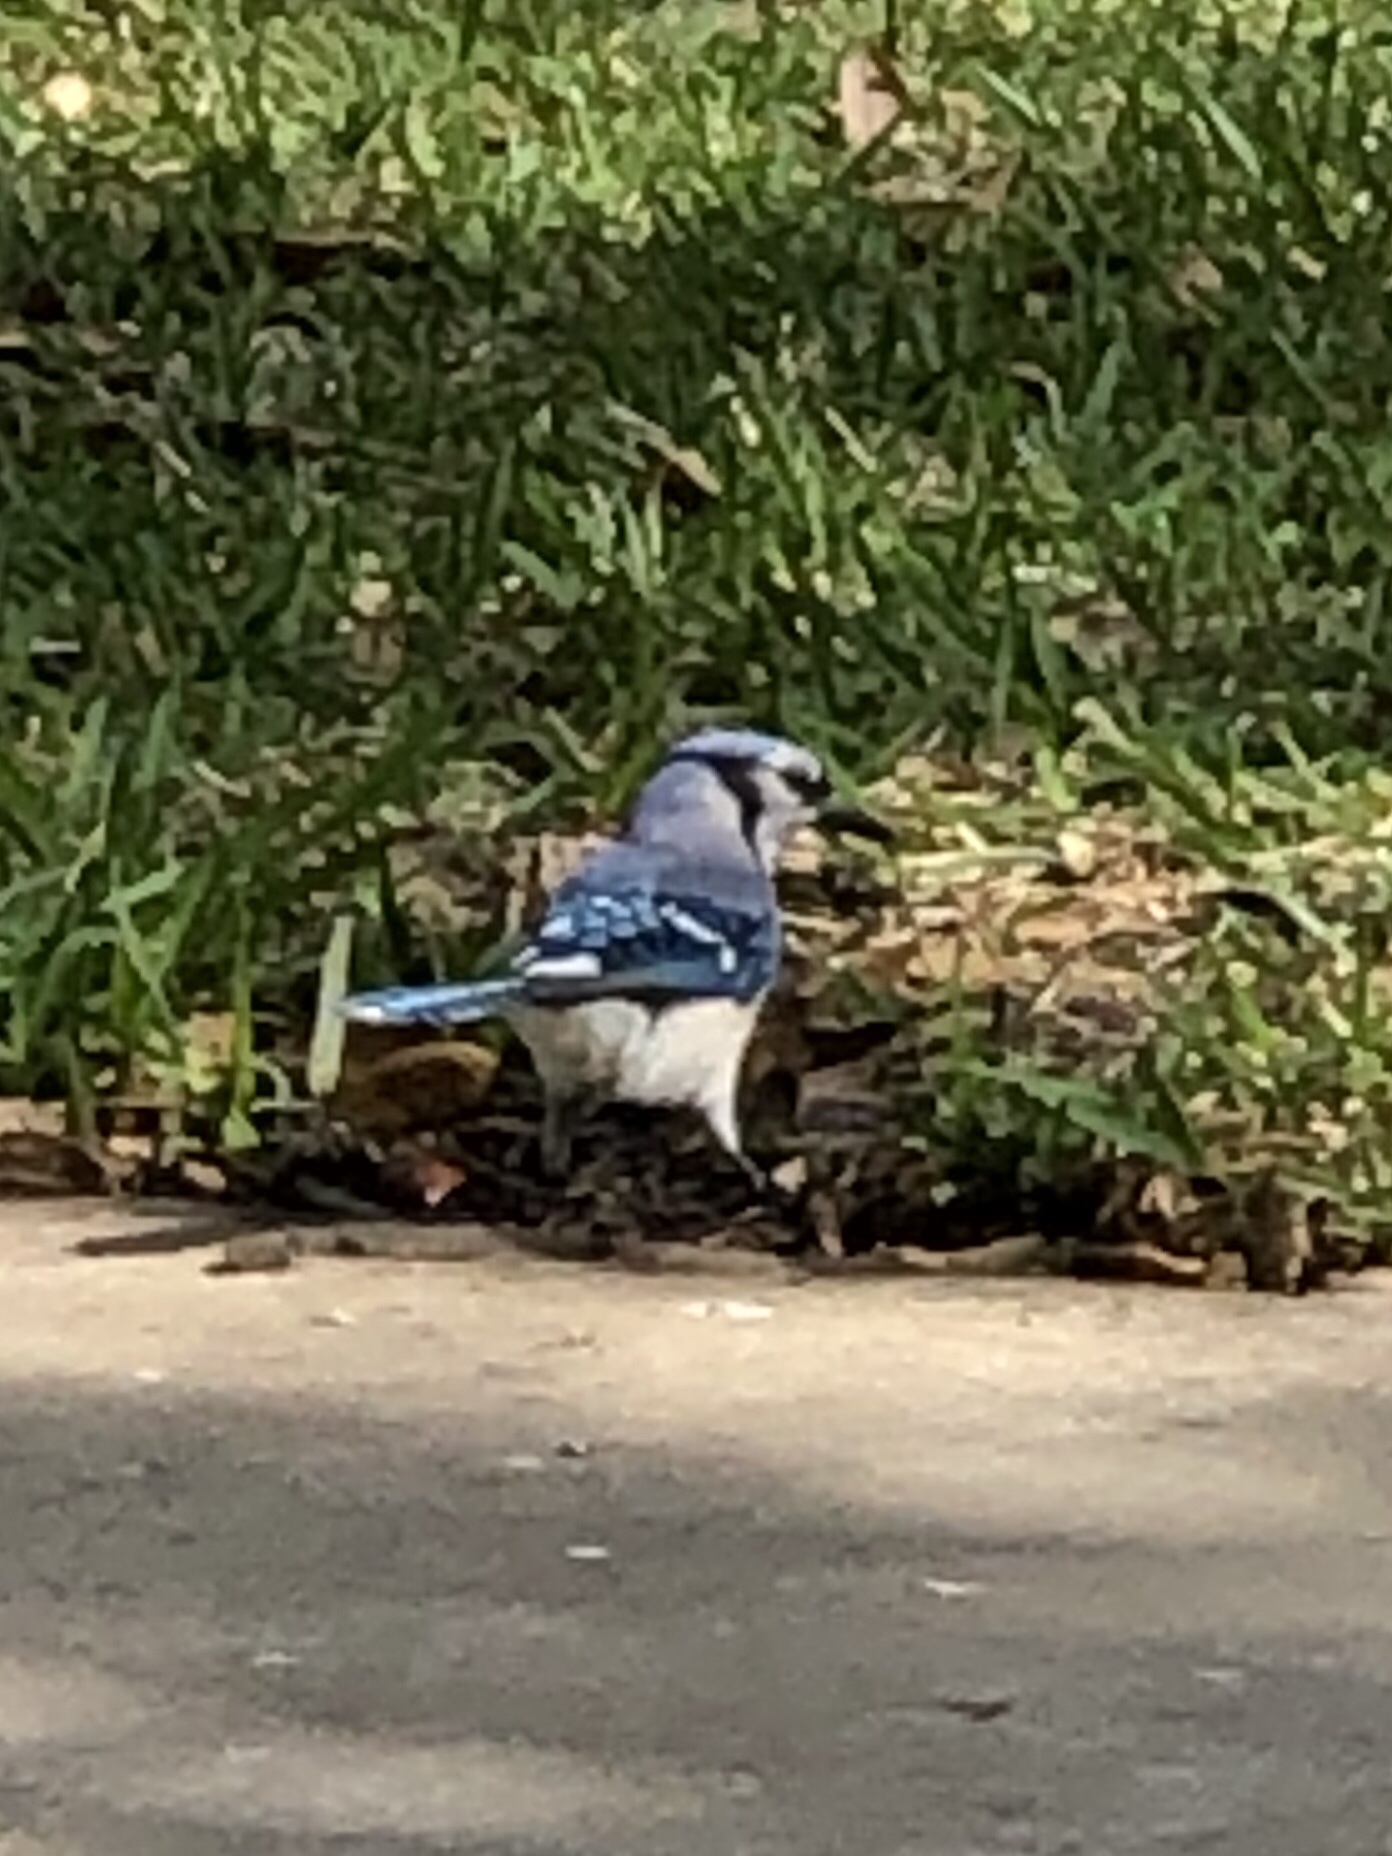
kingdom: Animalia
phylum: Chordata
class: Aves
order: Passeriformes
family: Corvidae
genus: Cyanocitta
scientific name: Cyanocitta cristata
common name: Blue jay
